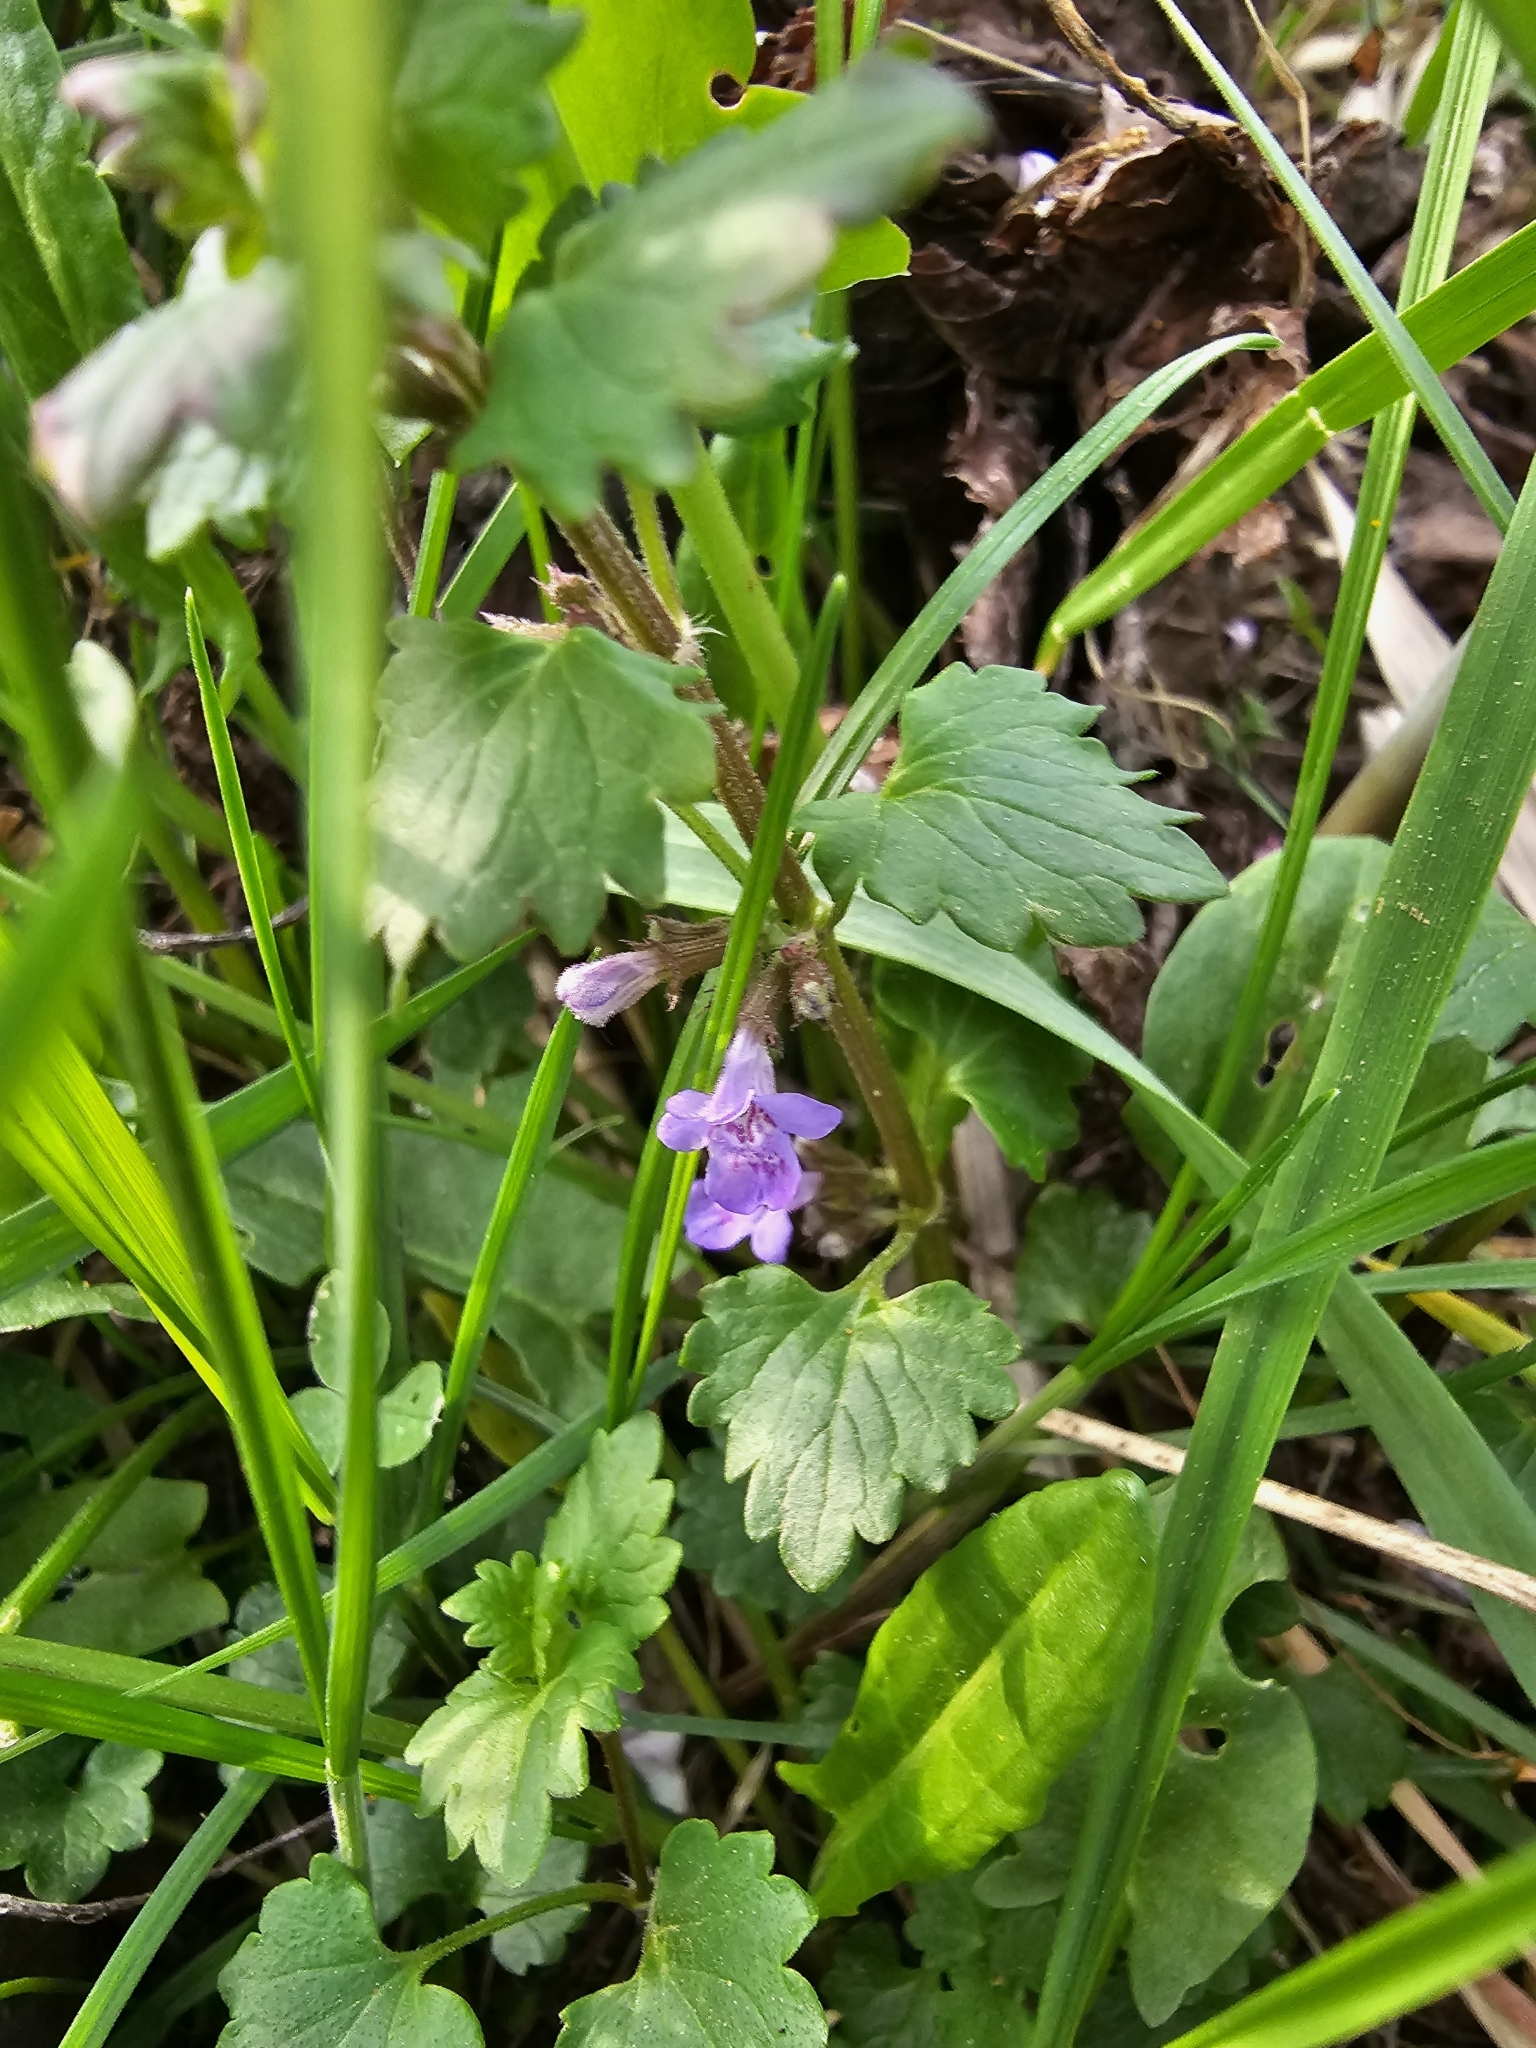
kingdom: Plantae
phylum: Tracheophyta
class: Magnoliopsida
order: Lamiales
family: Lamiaceae
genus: Glechoma
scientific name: Glechoma hederacea
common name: Ground ivy
